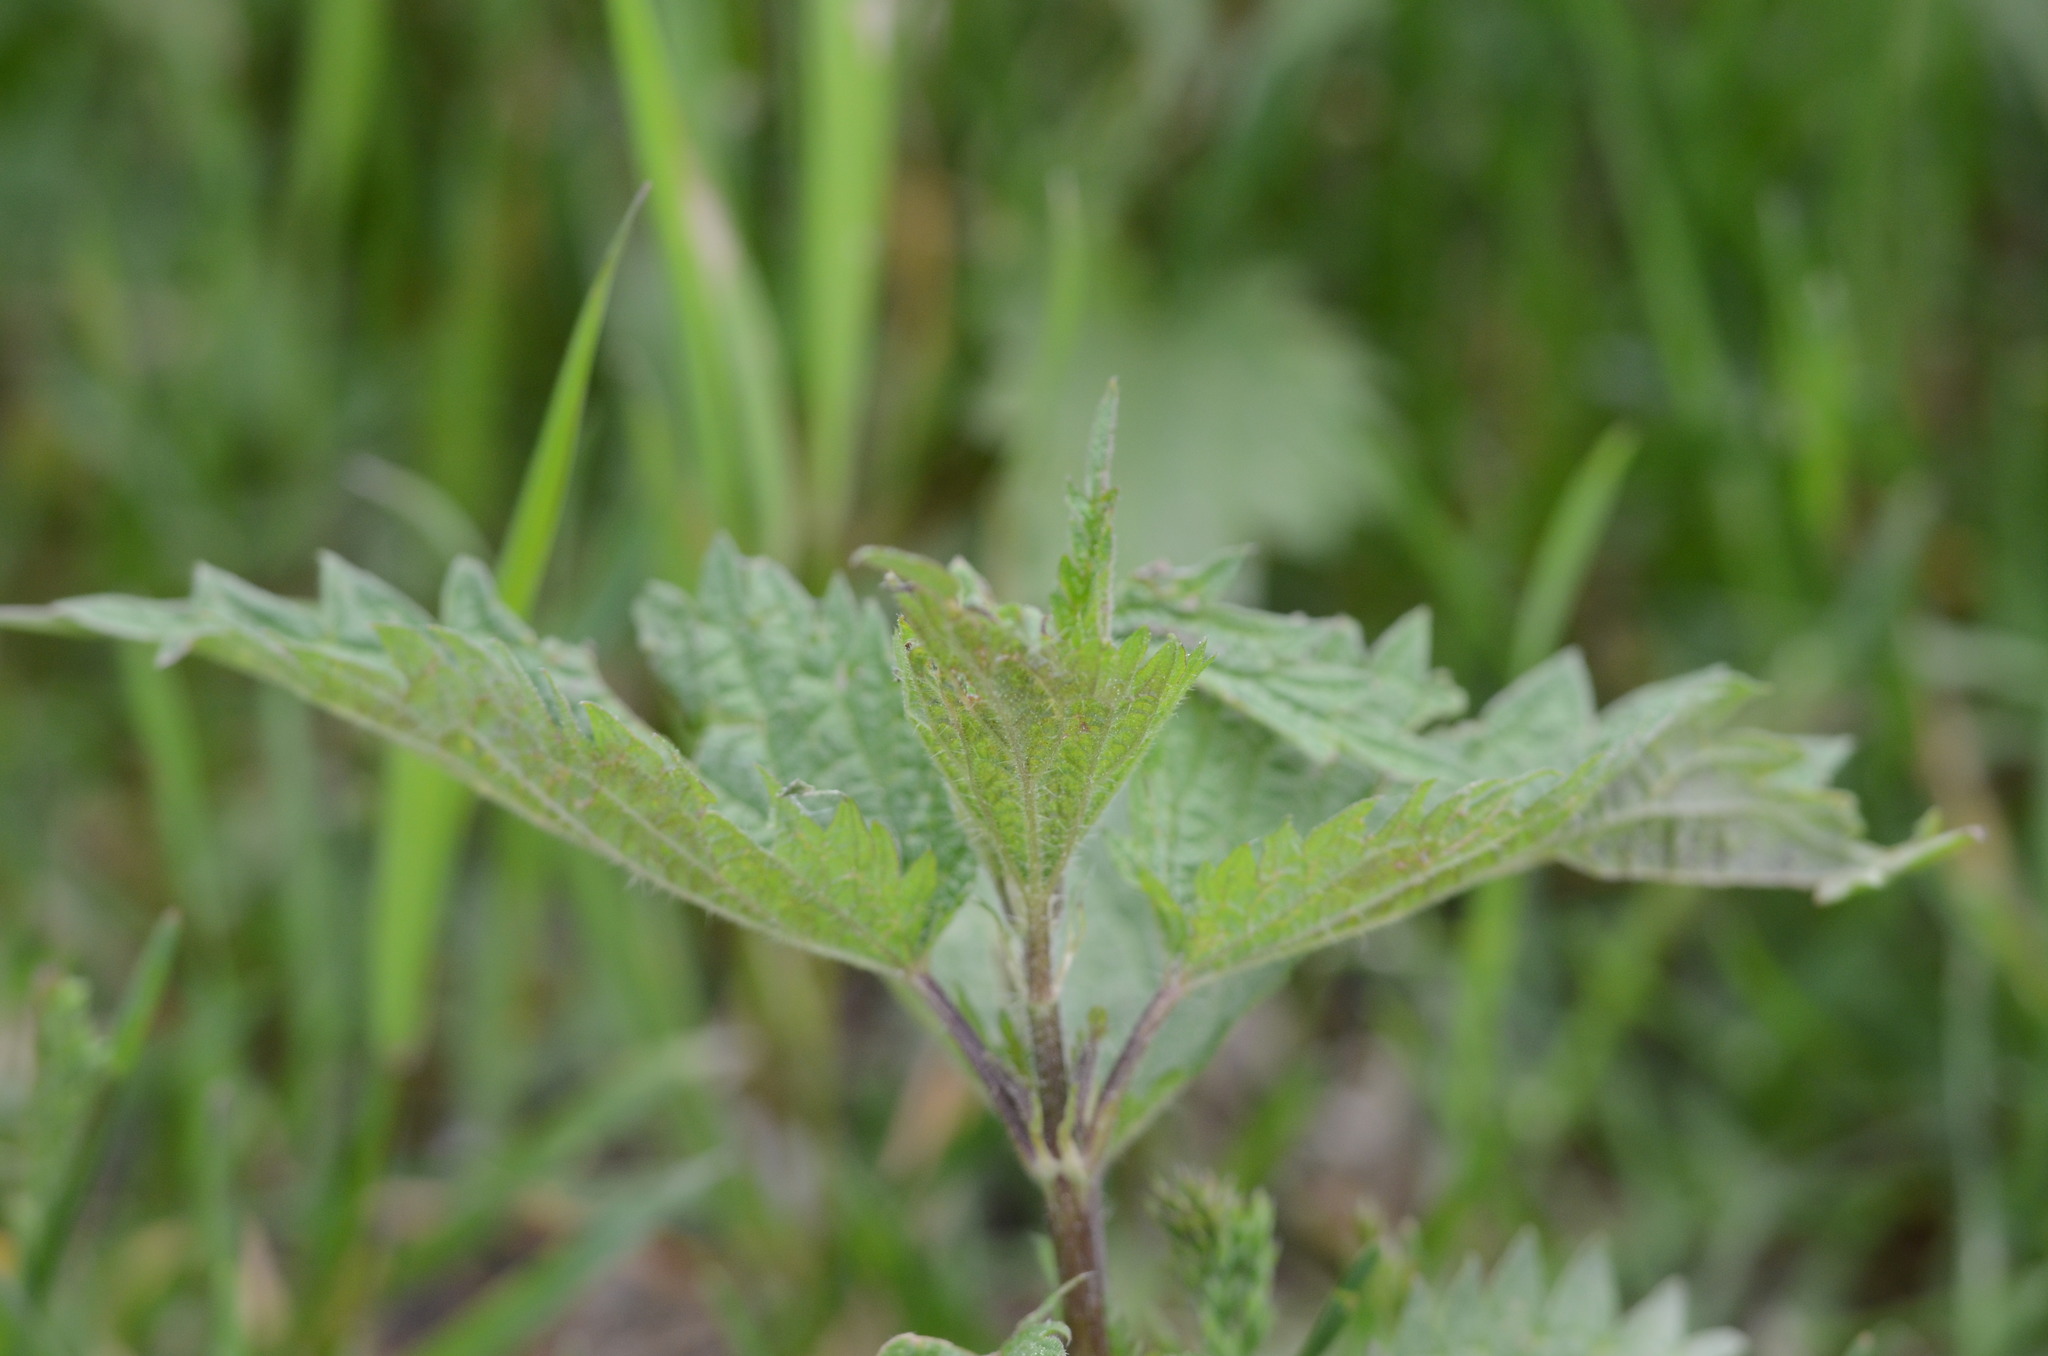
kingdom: Plantae
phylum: Tracheophyta
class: Magnoliopsida
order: Rosales
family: Urticaceae
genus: Urtica
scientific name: Urtica dioica
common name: Common nettle
